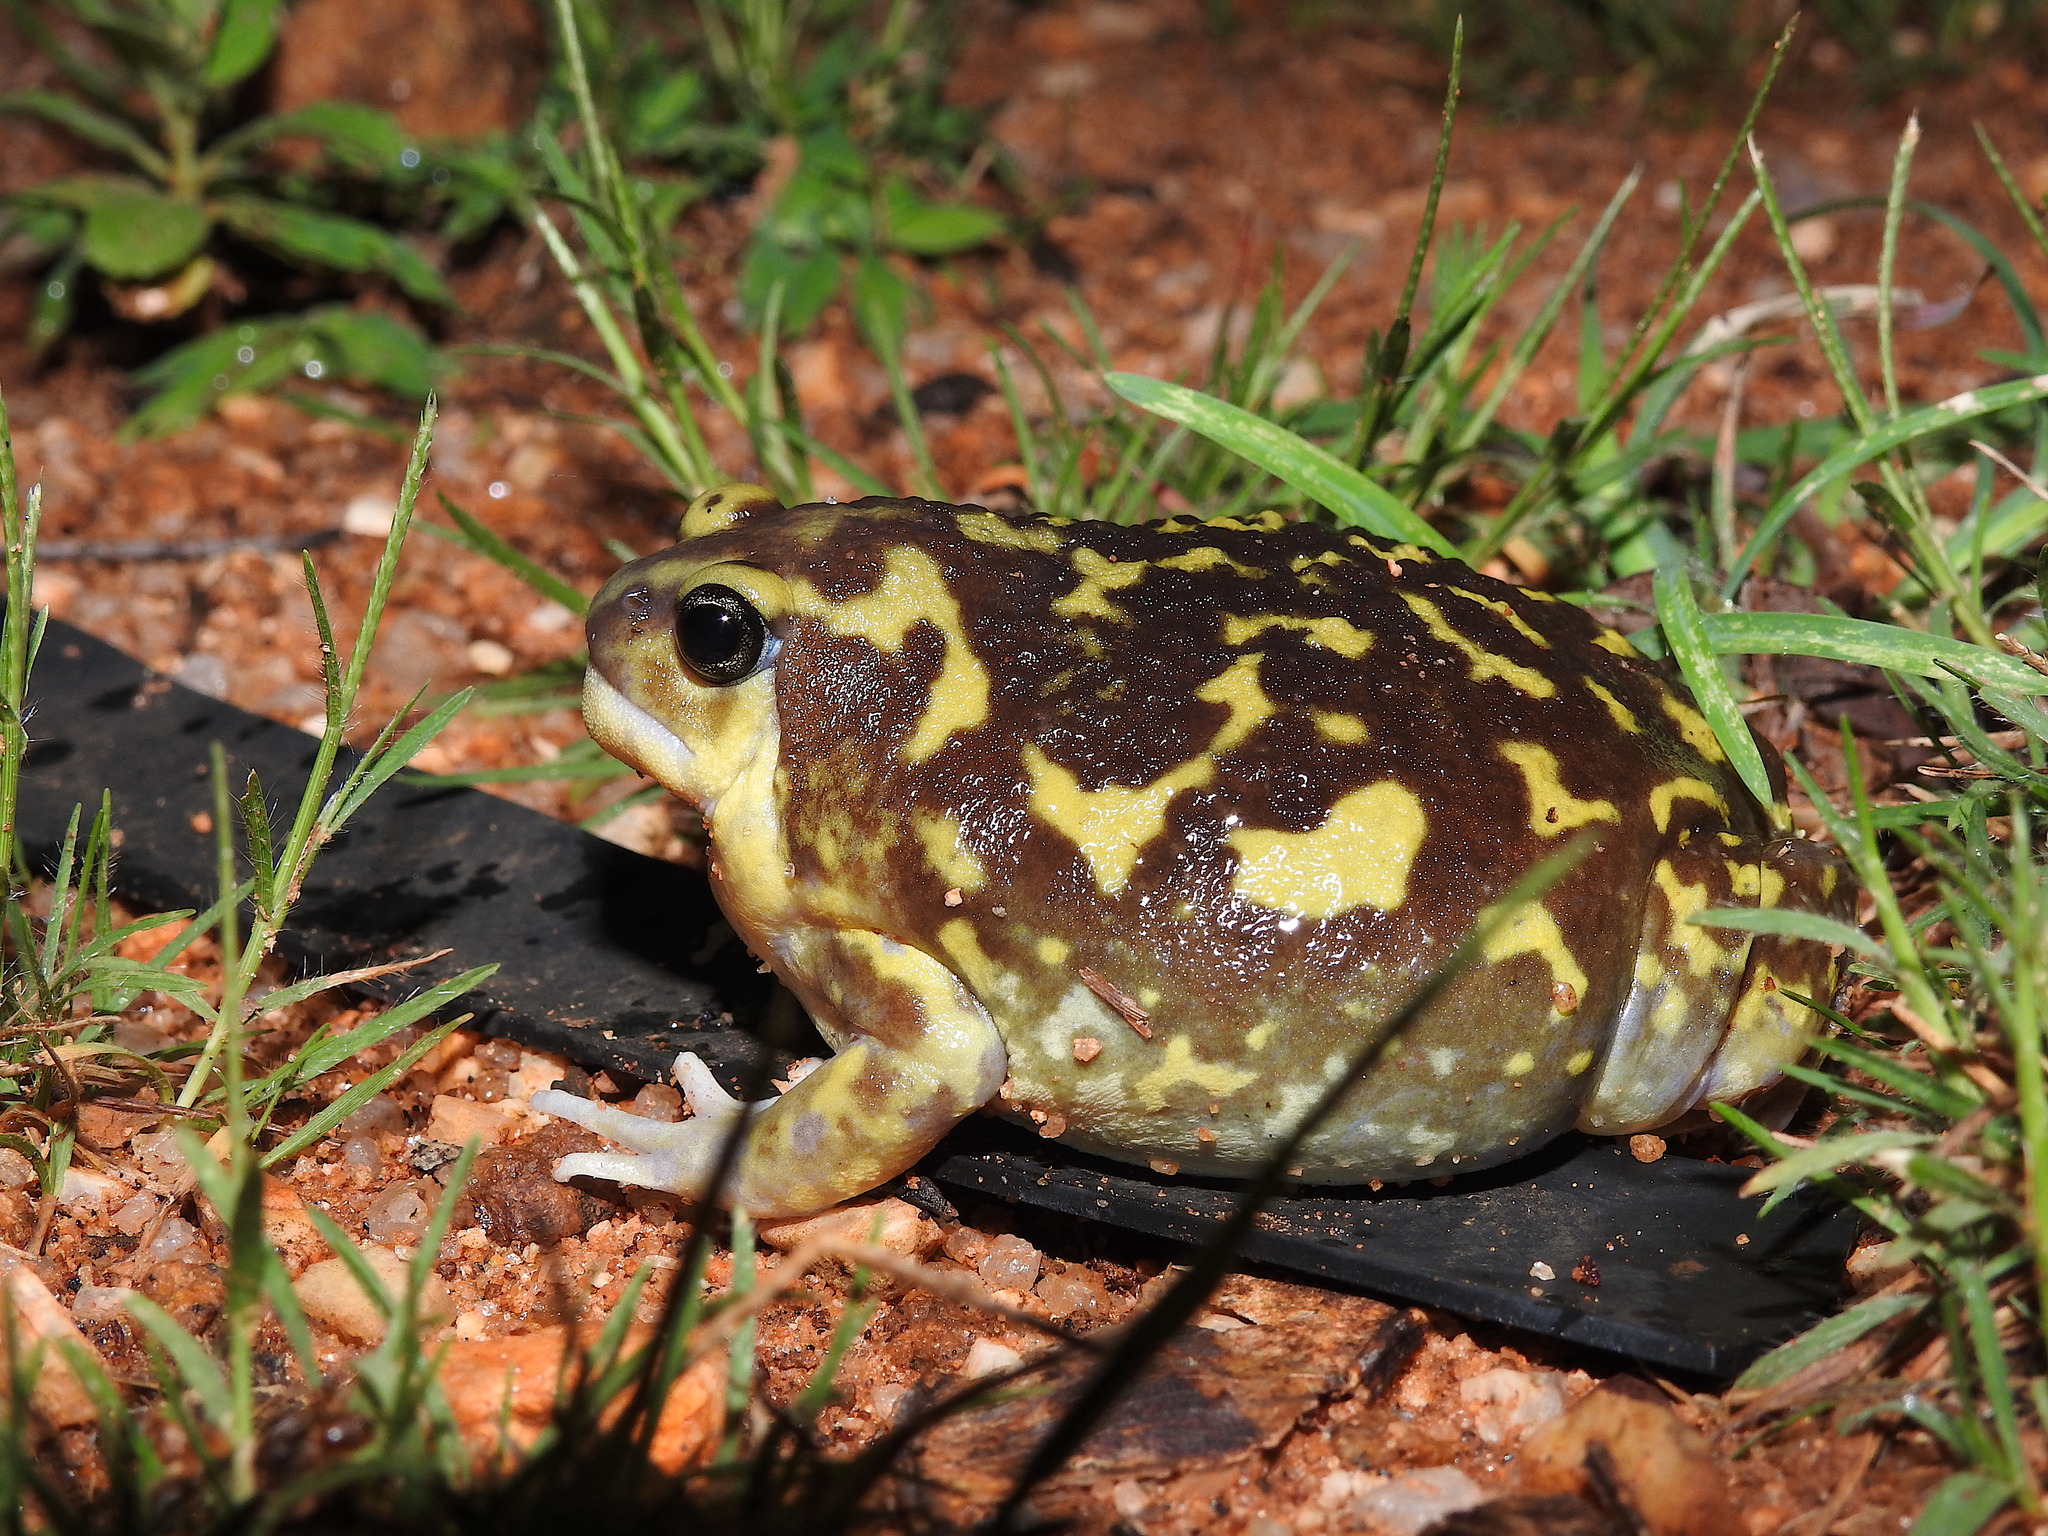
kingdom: Animalia
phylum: Chordata
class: Amphibia
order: Anura
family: Microhylidae
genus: Uperodon
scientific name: Uperodon systoma
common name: Balloon frog
